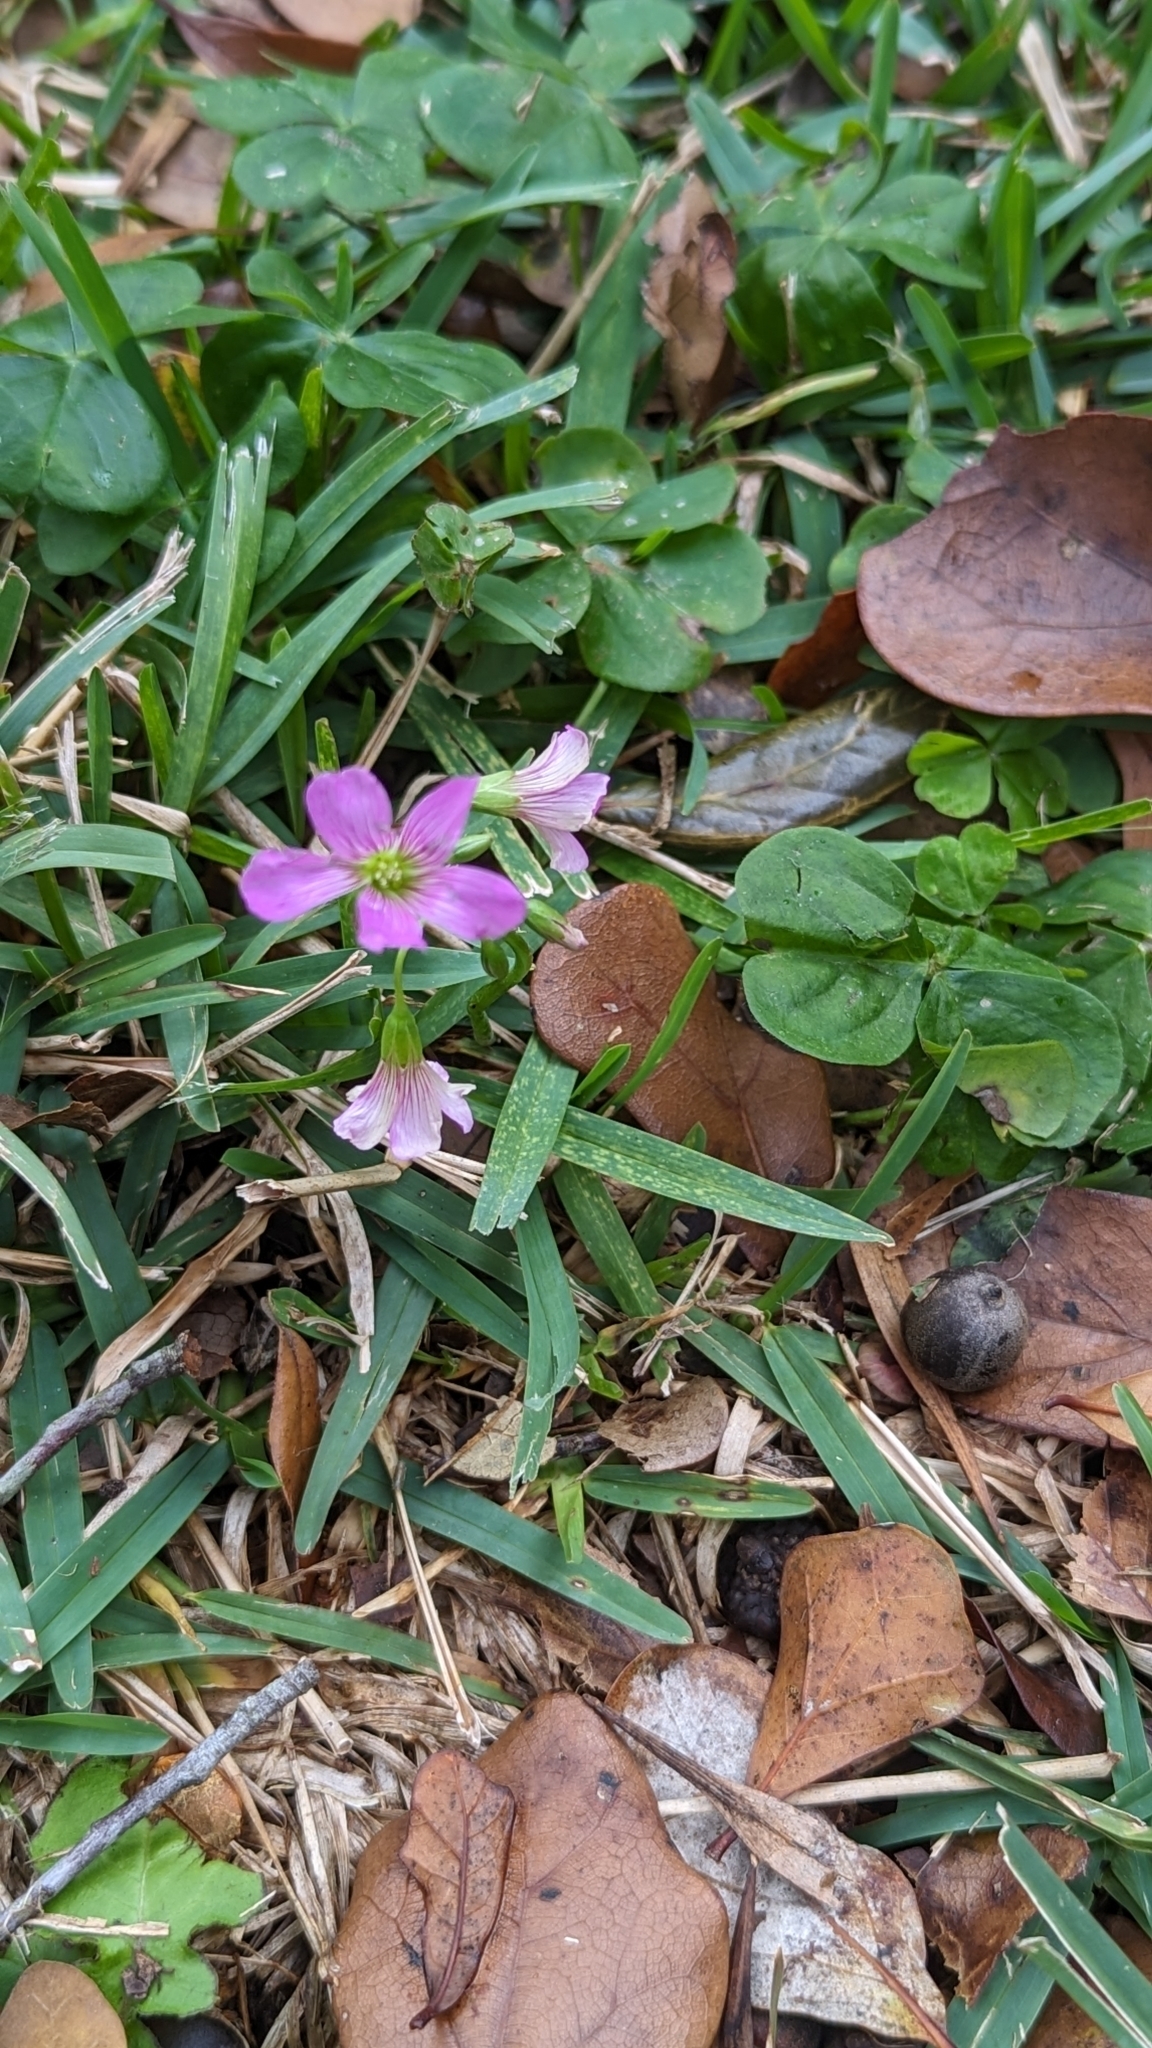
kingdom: Plantae
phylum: Tracheophyta
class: Magnoliopsida
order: Oxalidales
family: Oxalidaceae
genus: Oxalis
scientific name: Oxalis debilis
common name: Large-flowered pink-sorrel
